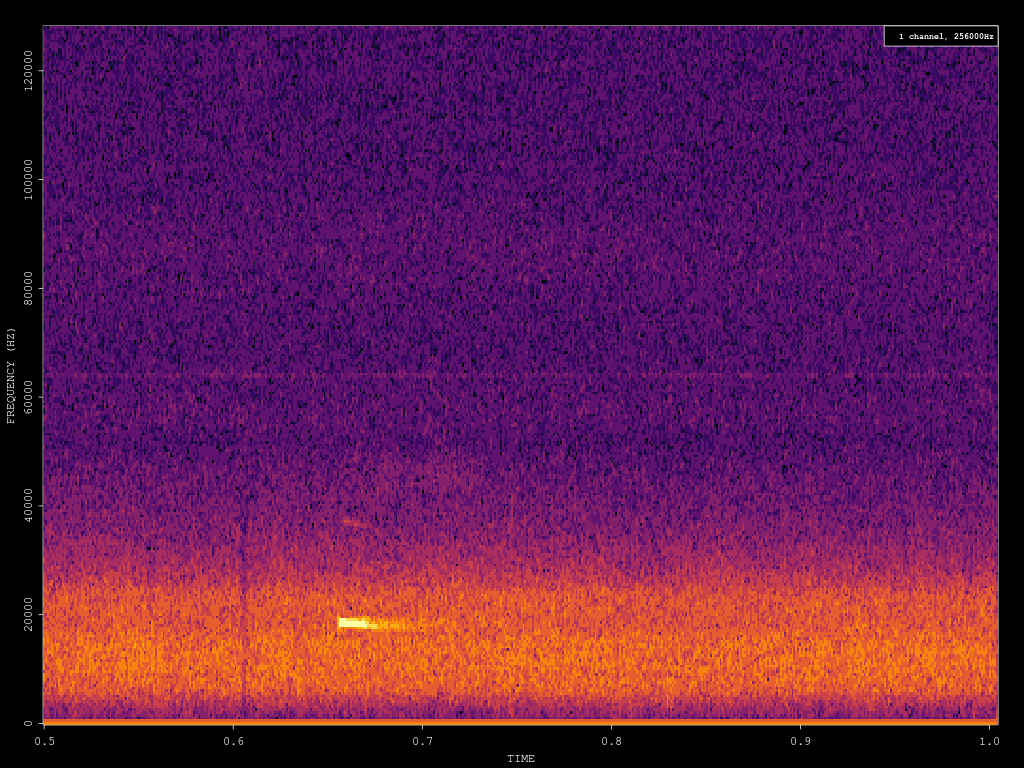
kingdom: Animalia
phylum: Chordata
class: Mammalia
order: Chiroptera
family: Vespertilionidae
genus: Nyctalus
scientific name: Nyctalus noctula
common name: Noctule
